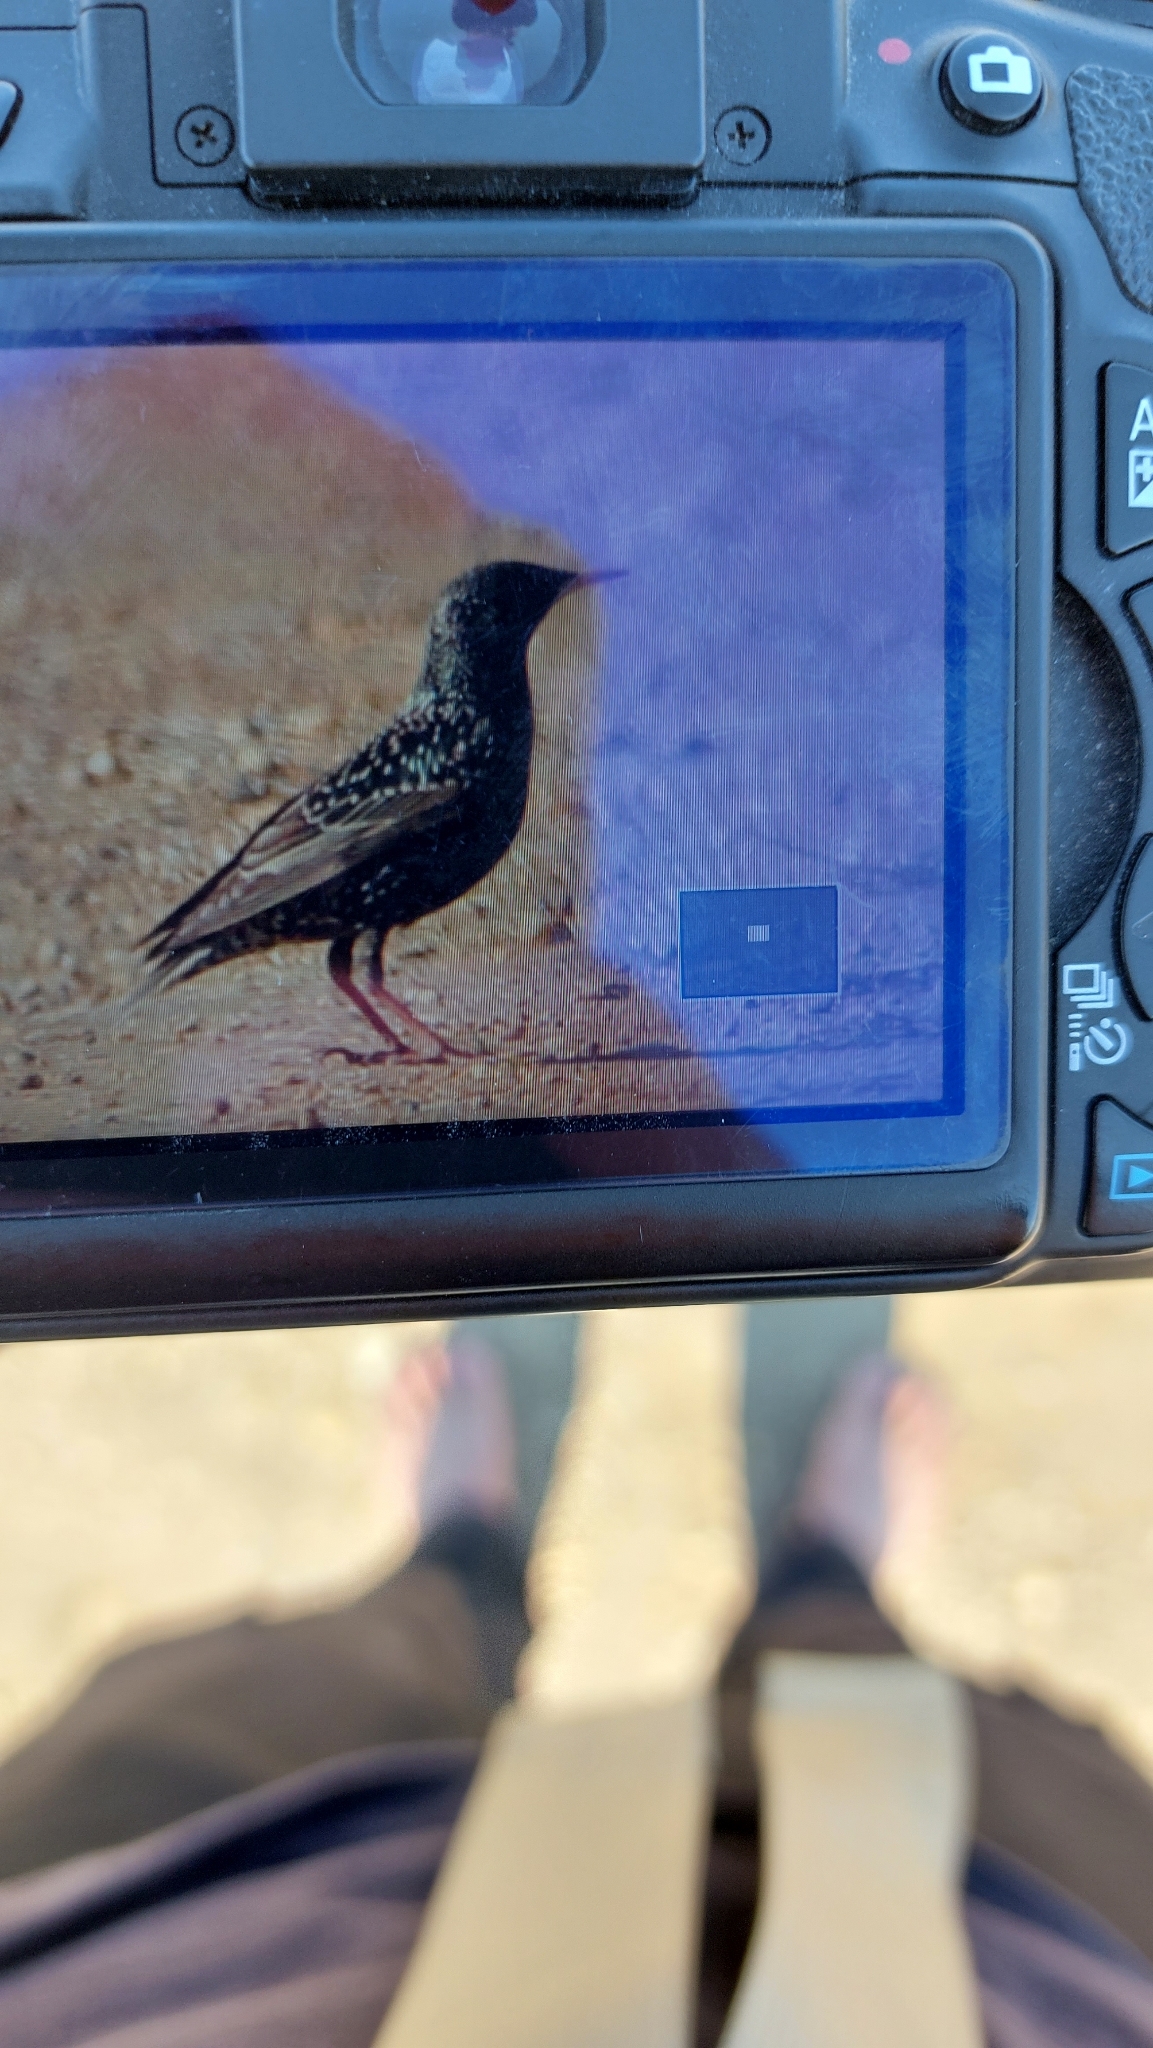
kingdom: Animalia
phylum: Chordata
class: Aves
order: Passeriformes
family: Sturnidae
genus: Sturnus
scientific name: Sturnus vulgaris
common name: Common starling
